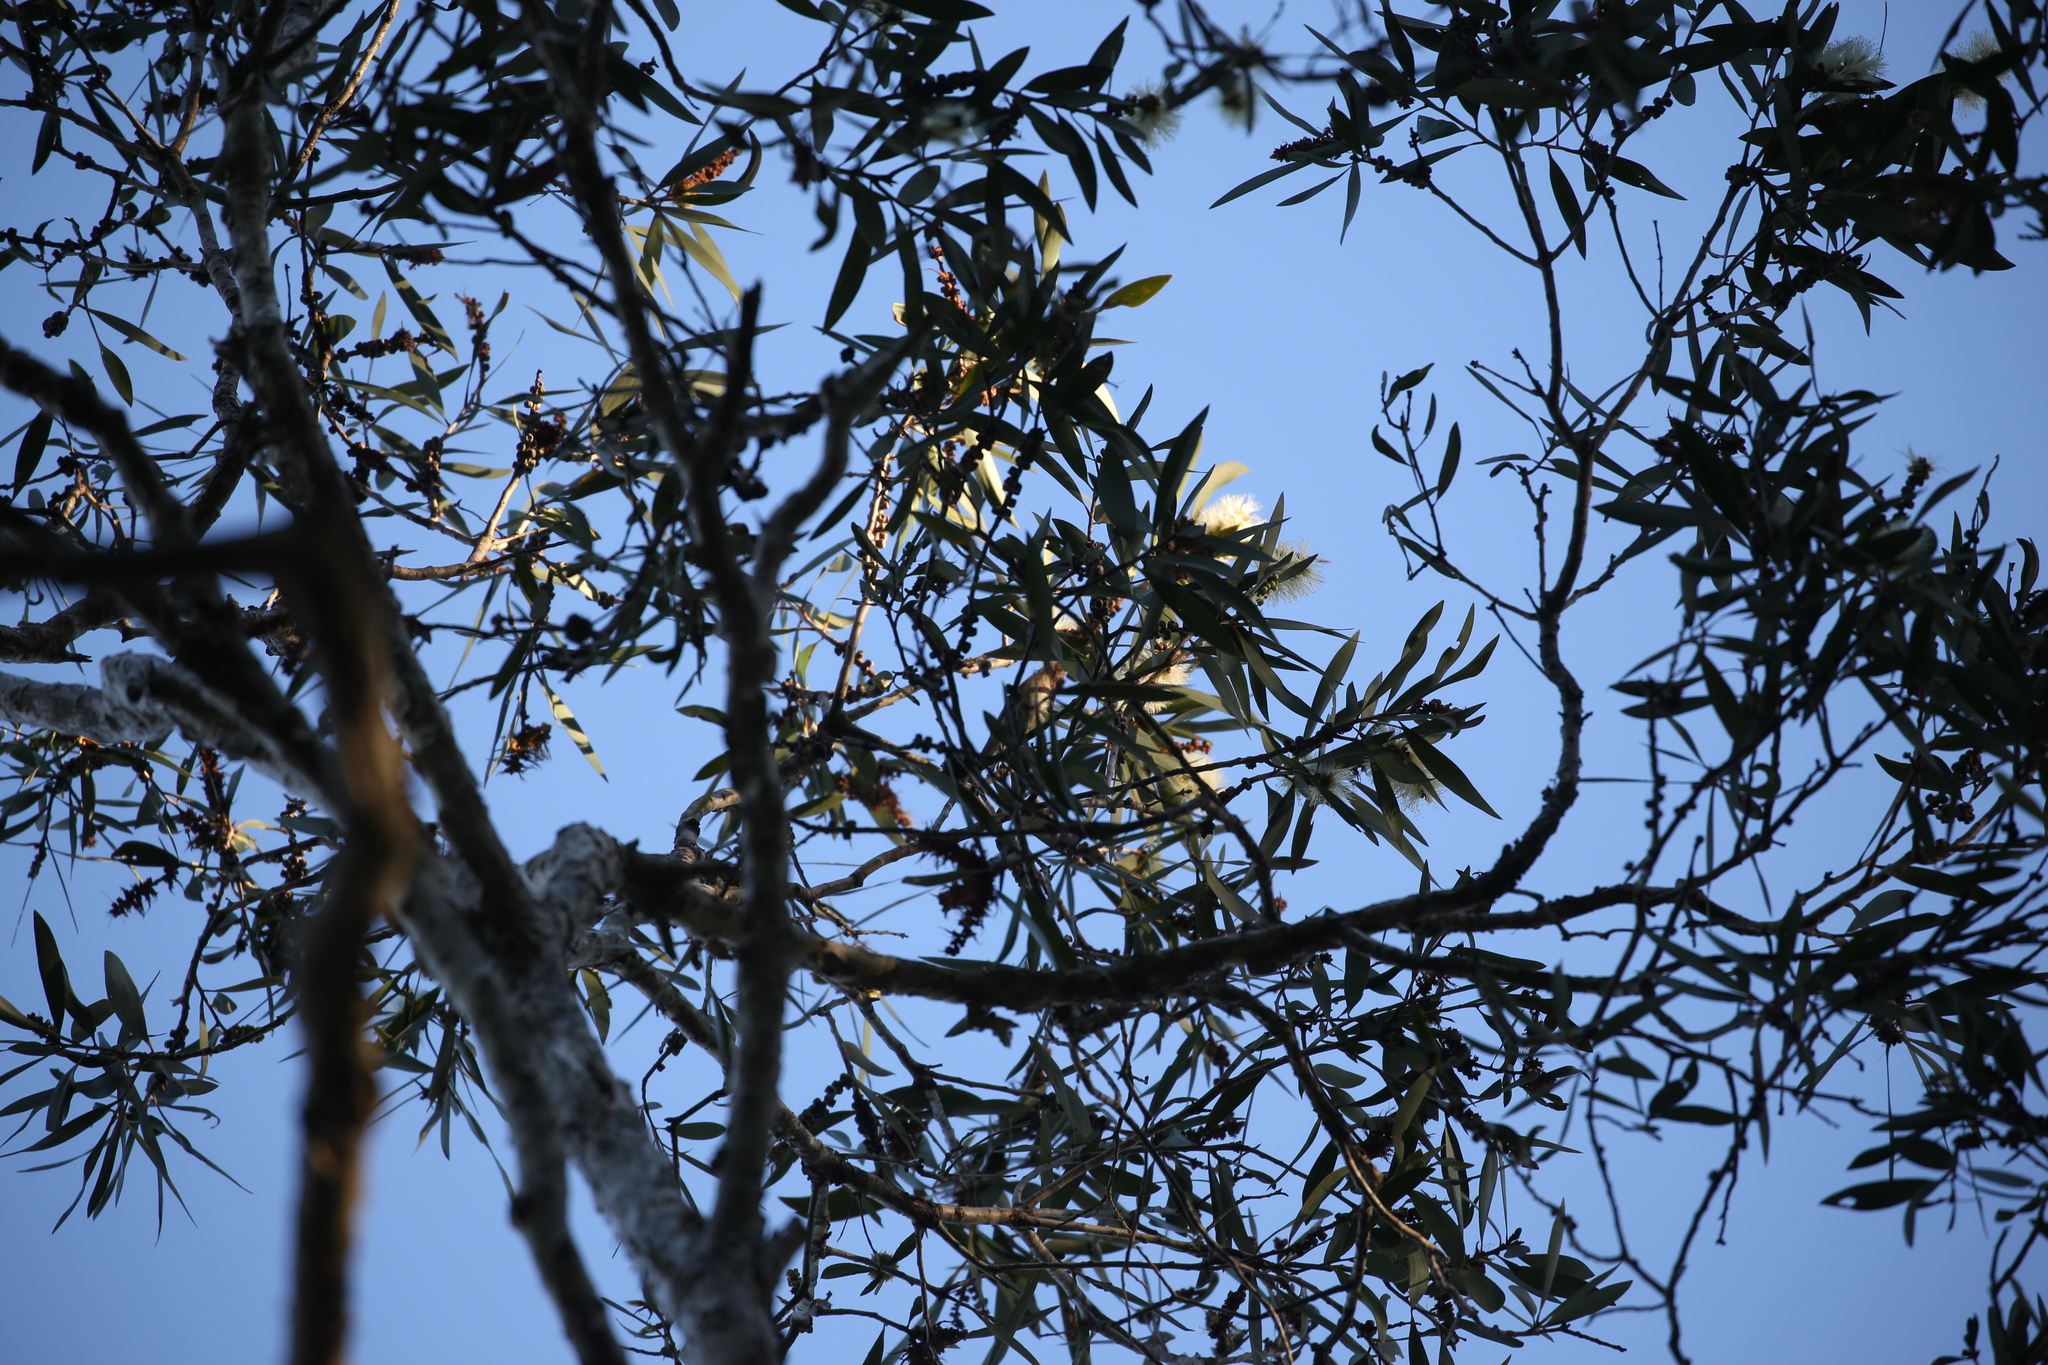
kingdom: Animalia
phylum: Chordata
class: Aves
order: Passeriformes
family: Meliphagidae
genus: Myzomela
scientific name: Myzomela sanguinolenta
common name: Scarlet myzomela
